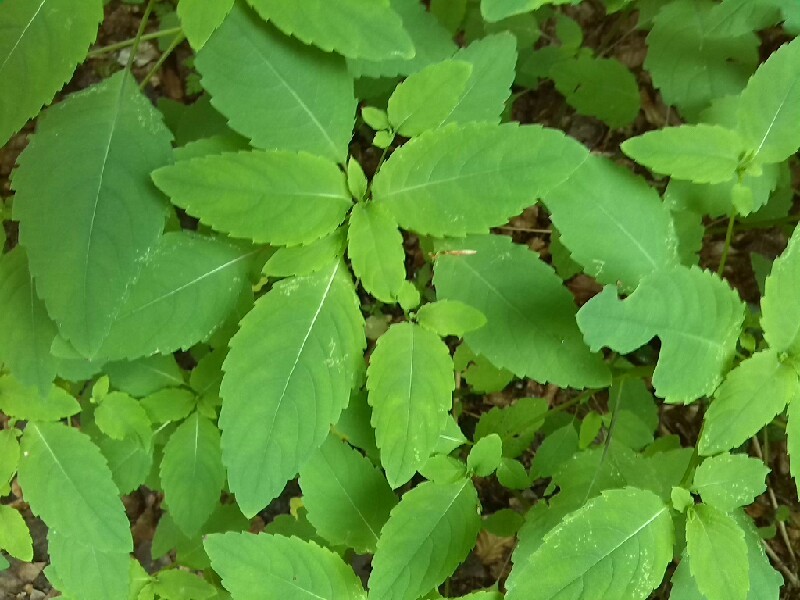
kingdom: Plantae
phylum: Tracheophyta
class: Magnoliopsida
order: Ericales
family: Balsaminaceae
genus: Impatiens
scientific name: Impatiens noli-tangere
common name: Touch-me-not balsam
